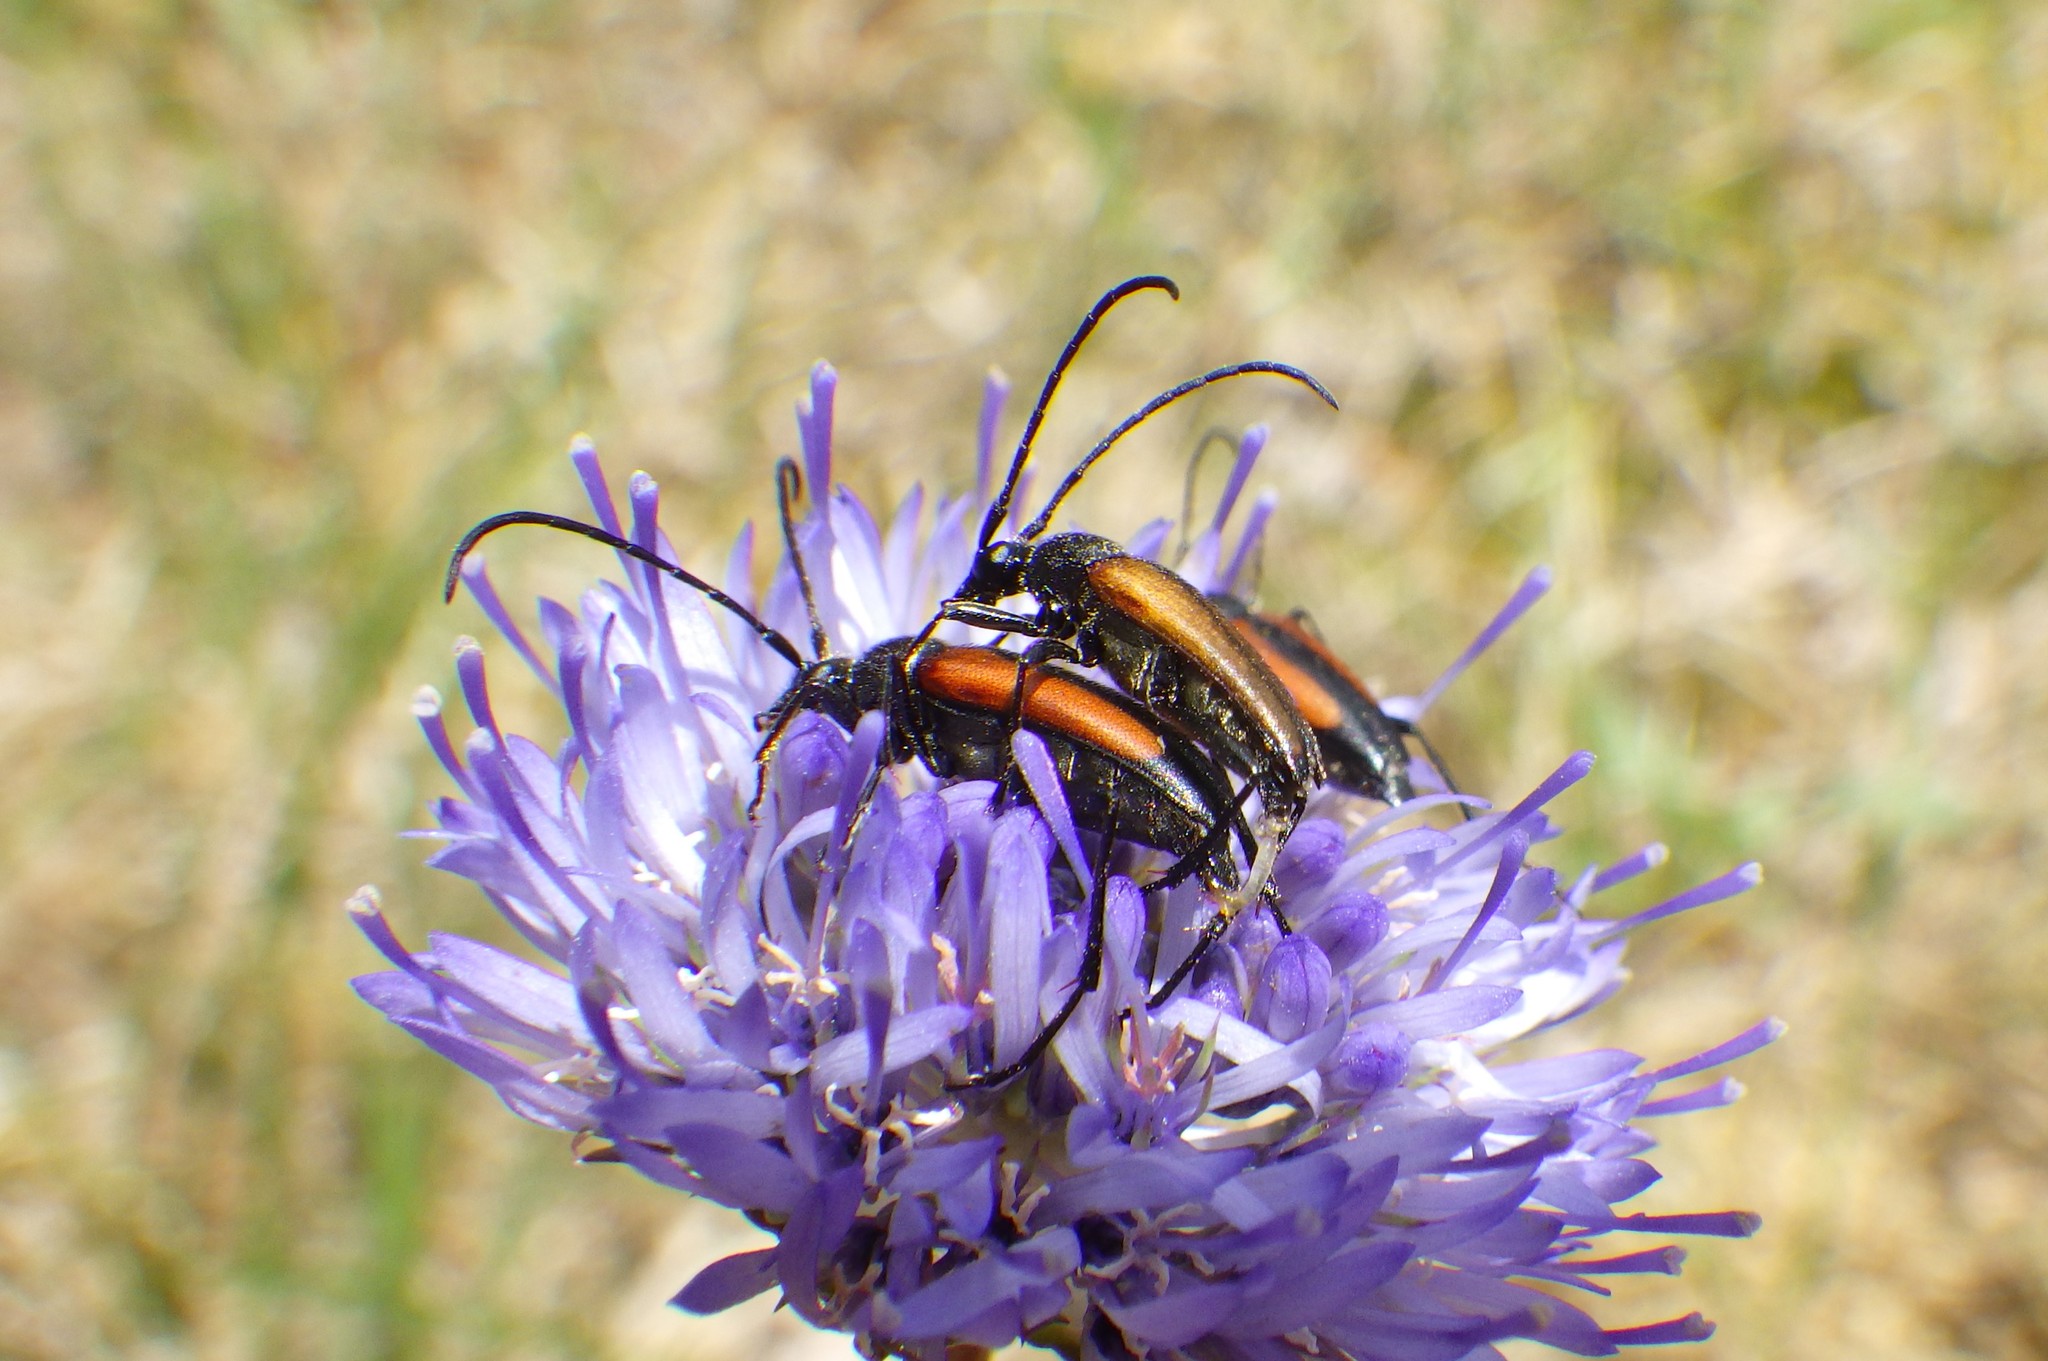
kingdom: Animalia
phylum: Arthropoda
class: Insecta
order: Coleoptera
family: Cerambycidae
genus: Stenurella
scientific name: Stenurella melanura
